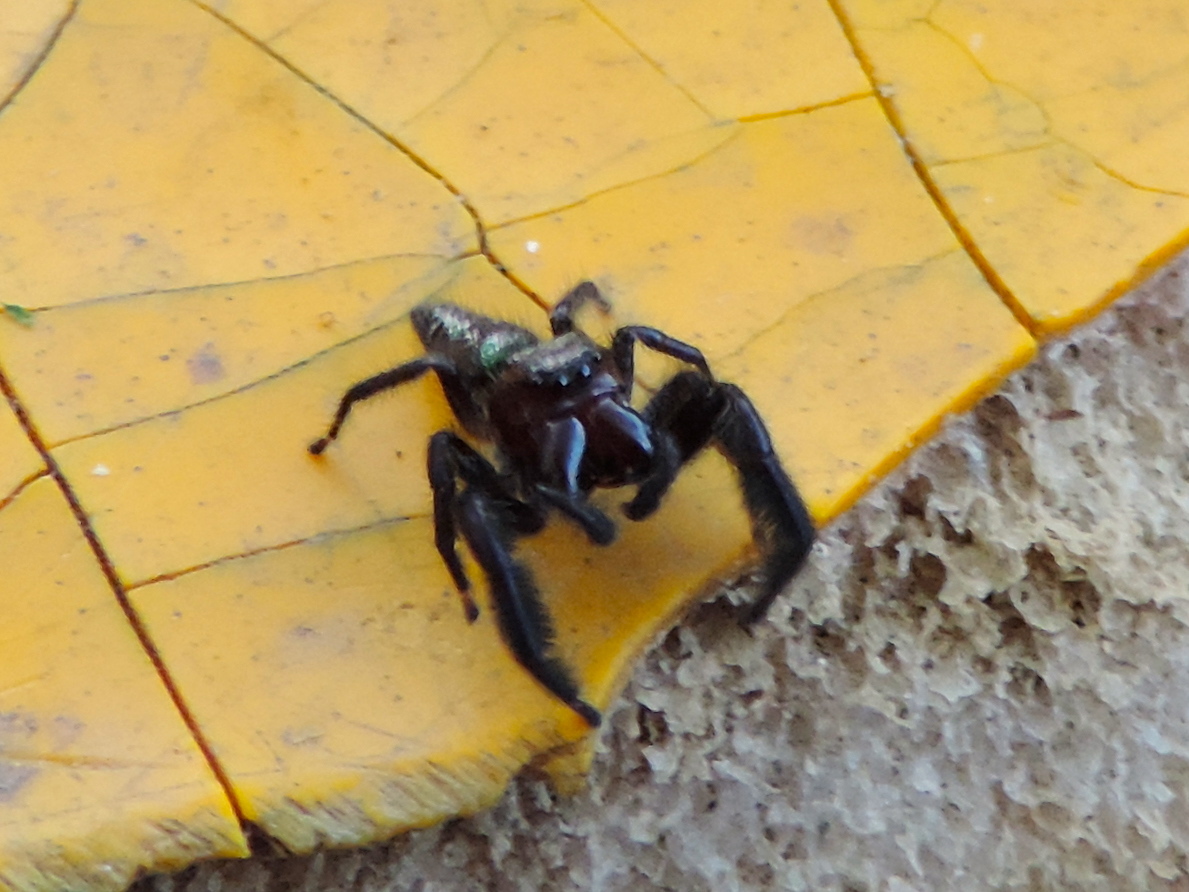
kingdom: Animalia
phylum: Arthropoda
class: Arachnida
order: Araneae
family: Salticidae
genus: Paraphidippus
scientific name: Paraphidippus fartilis
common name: Jumping spiders
